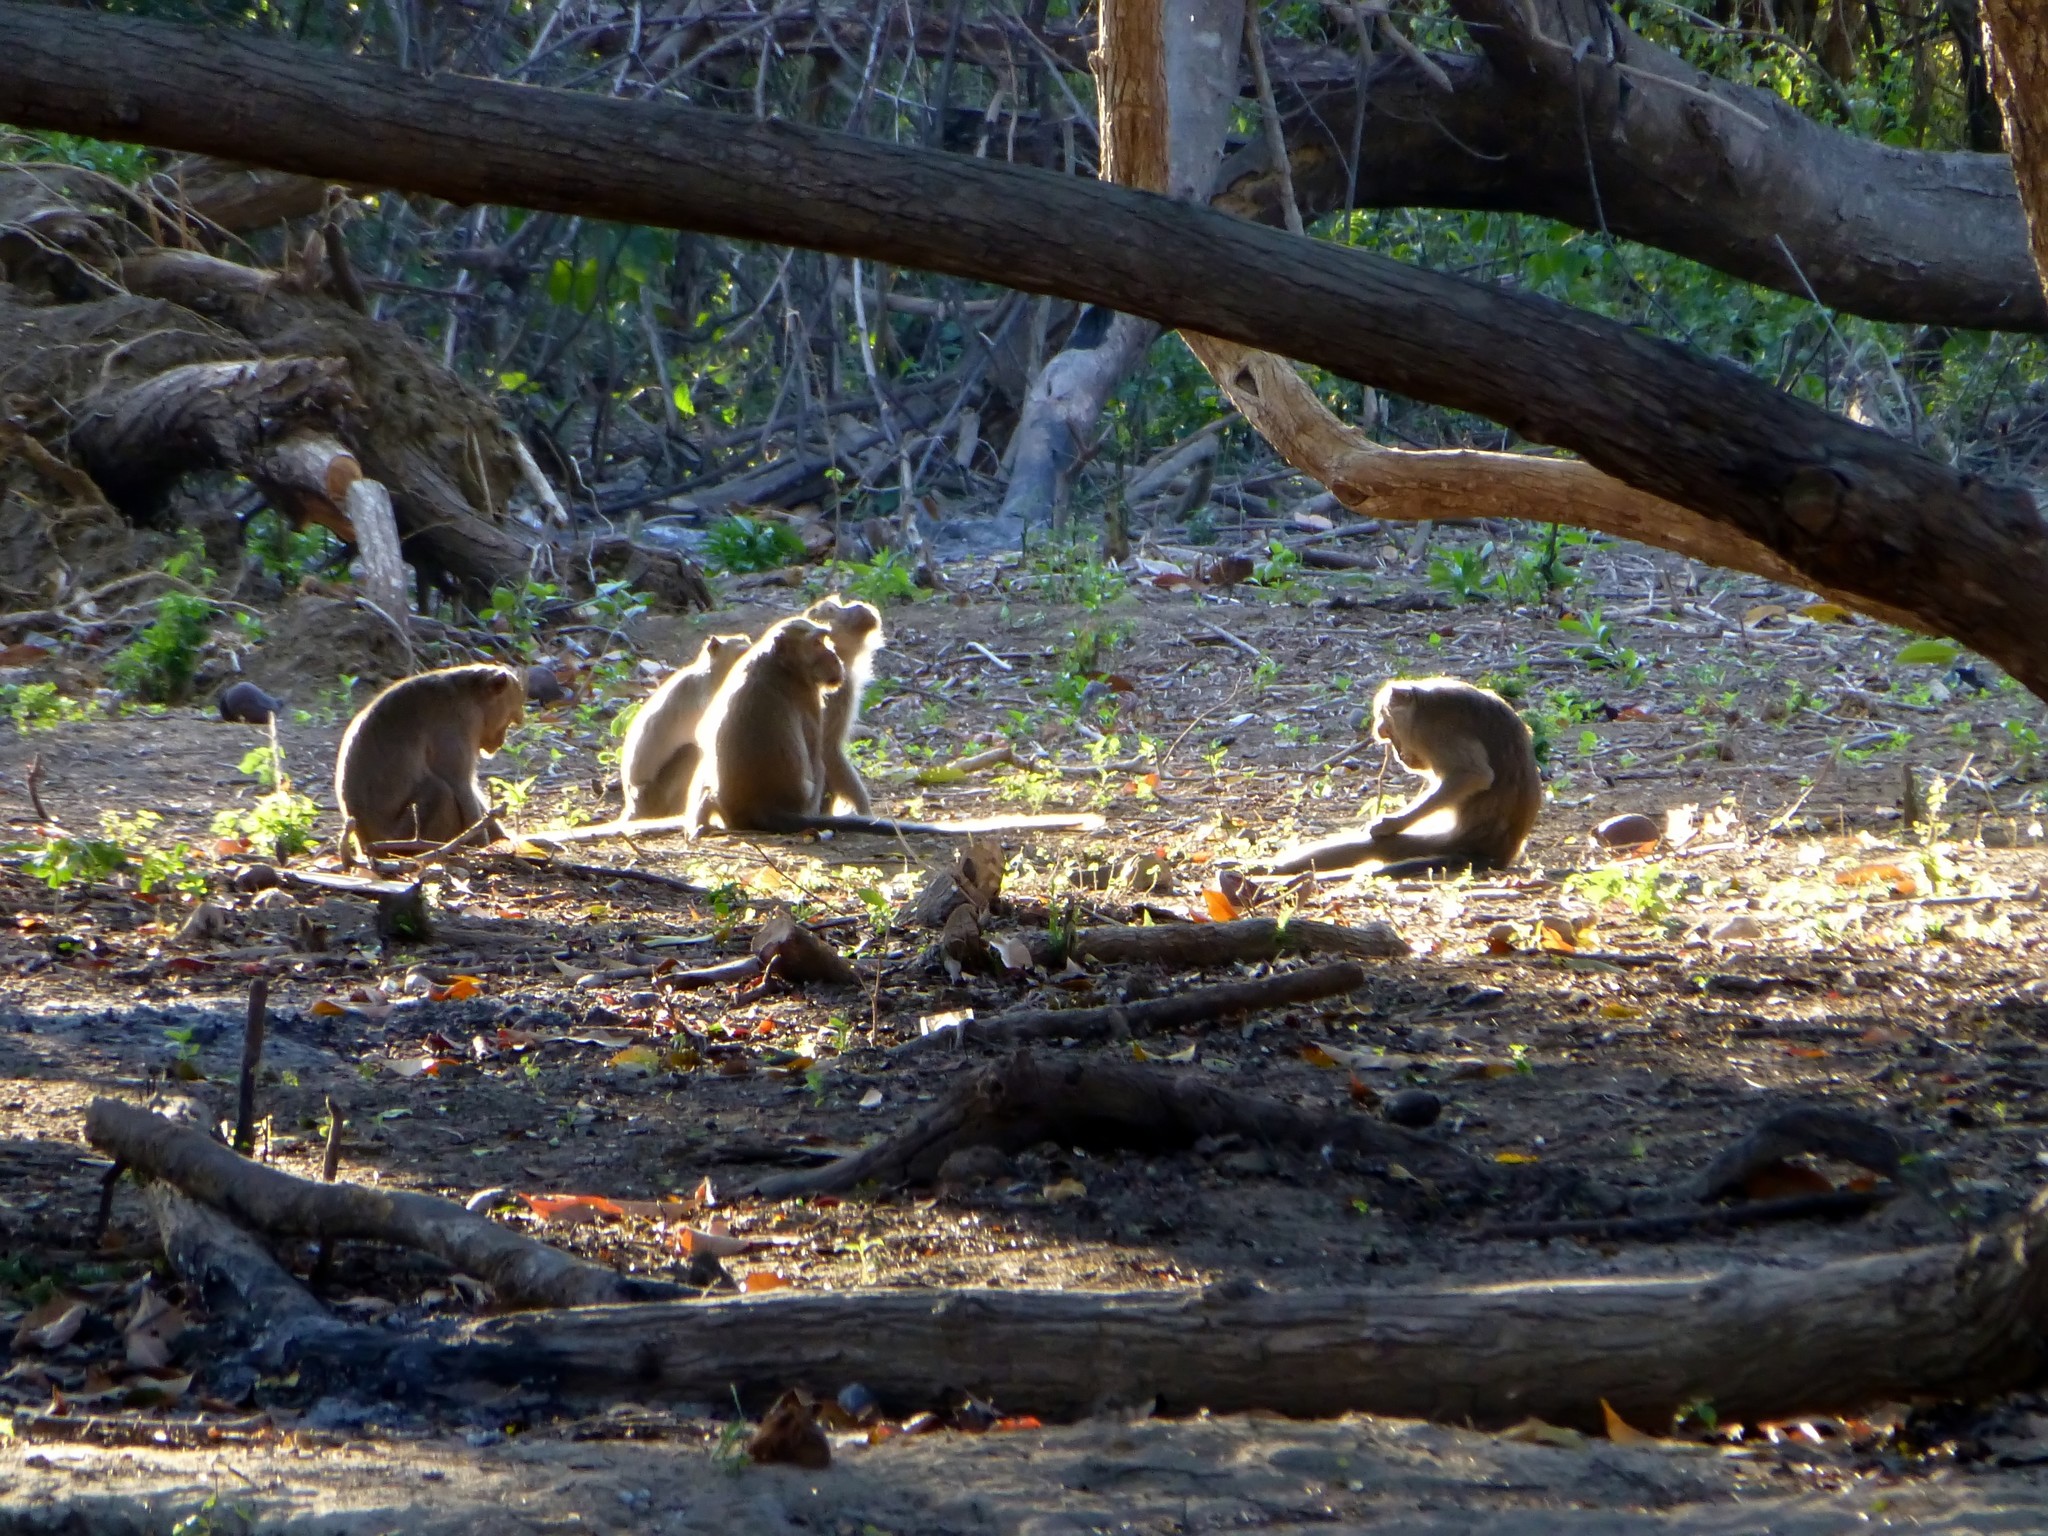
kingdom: Animalia
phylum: Chordata
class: Mammalia
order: Primates
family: Cercopithecidae
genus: Macaca
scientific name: Macaca fascicularis
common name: Crab-eating macaque
